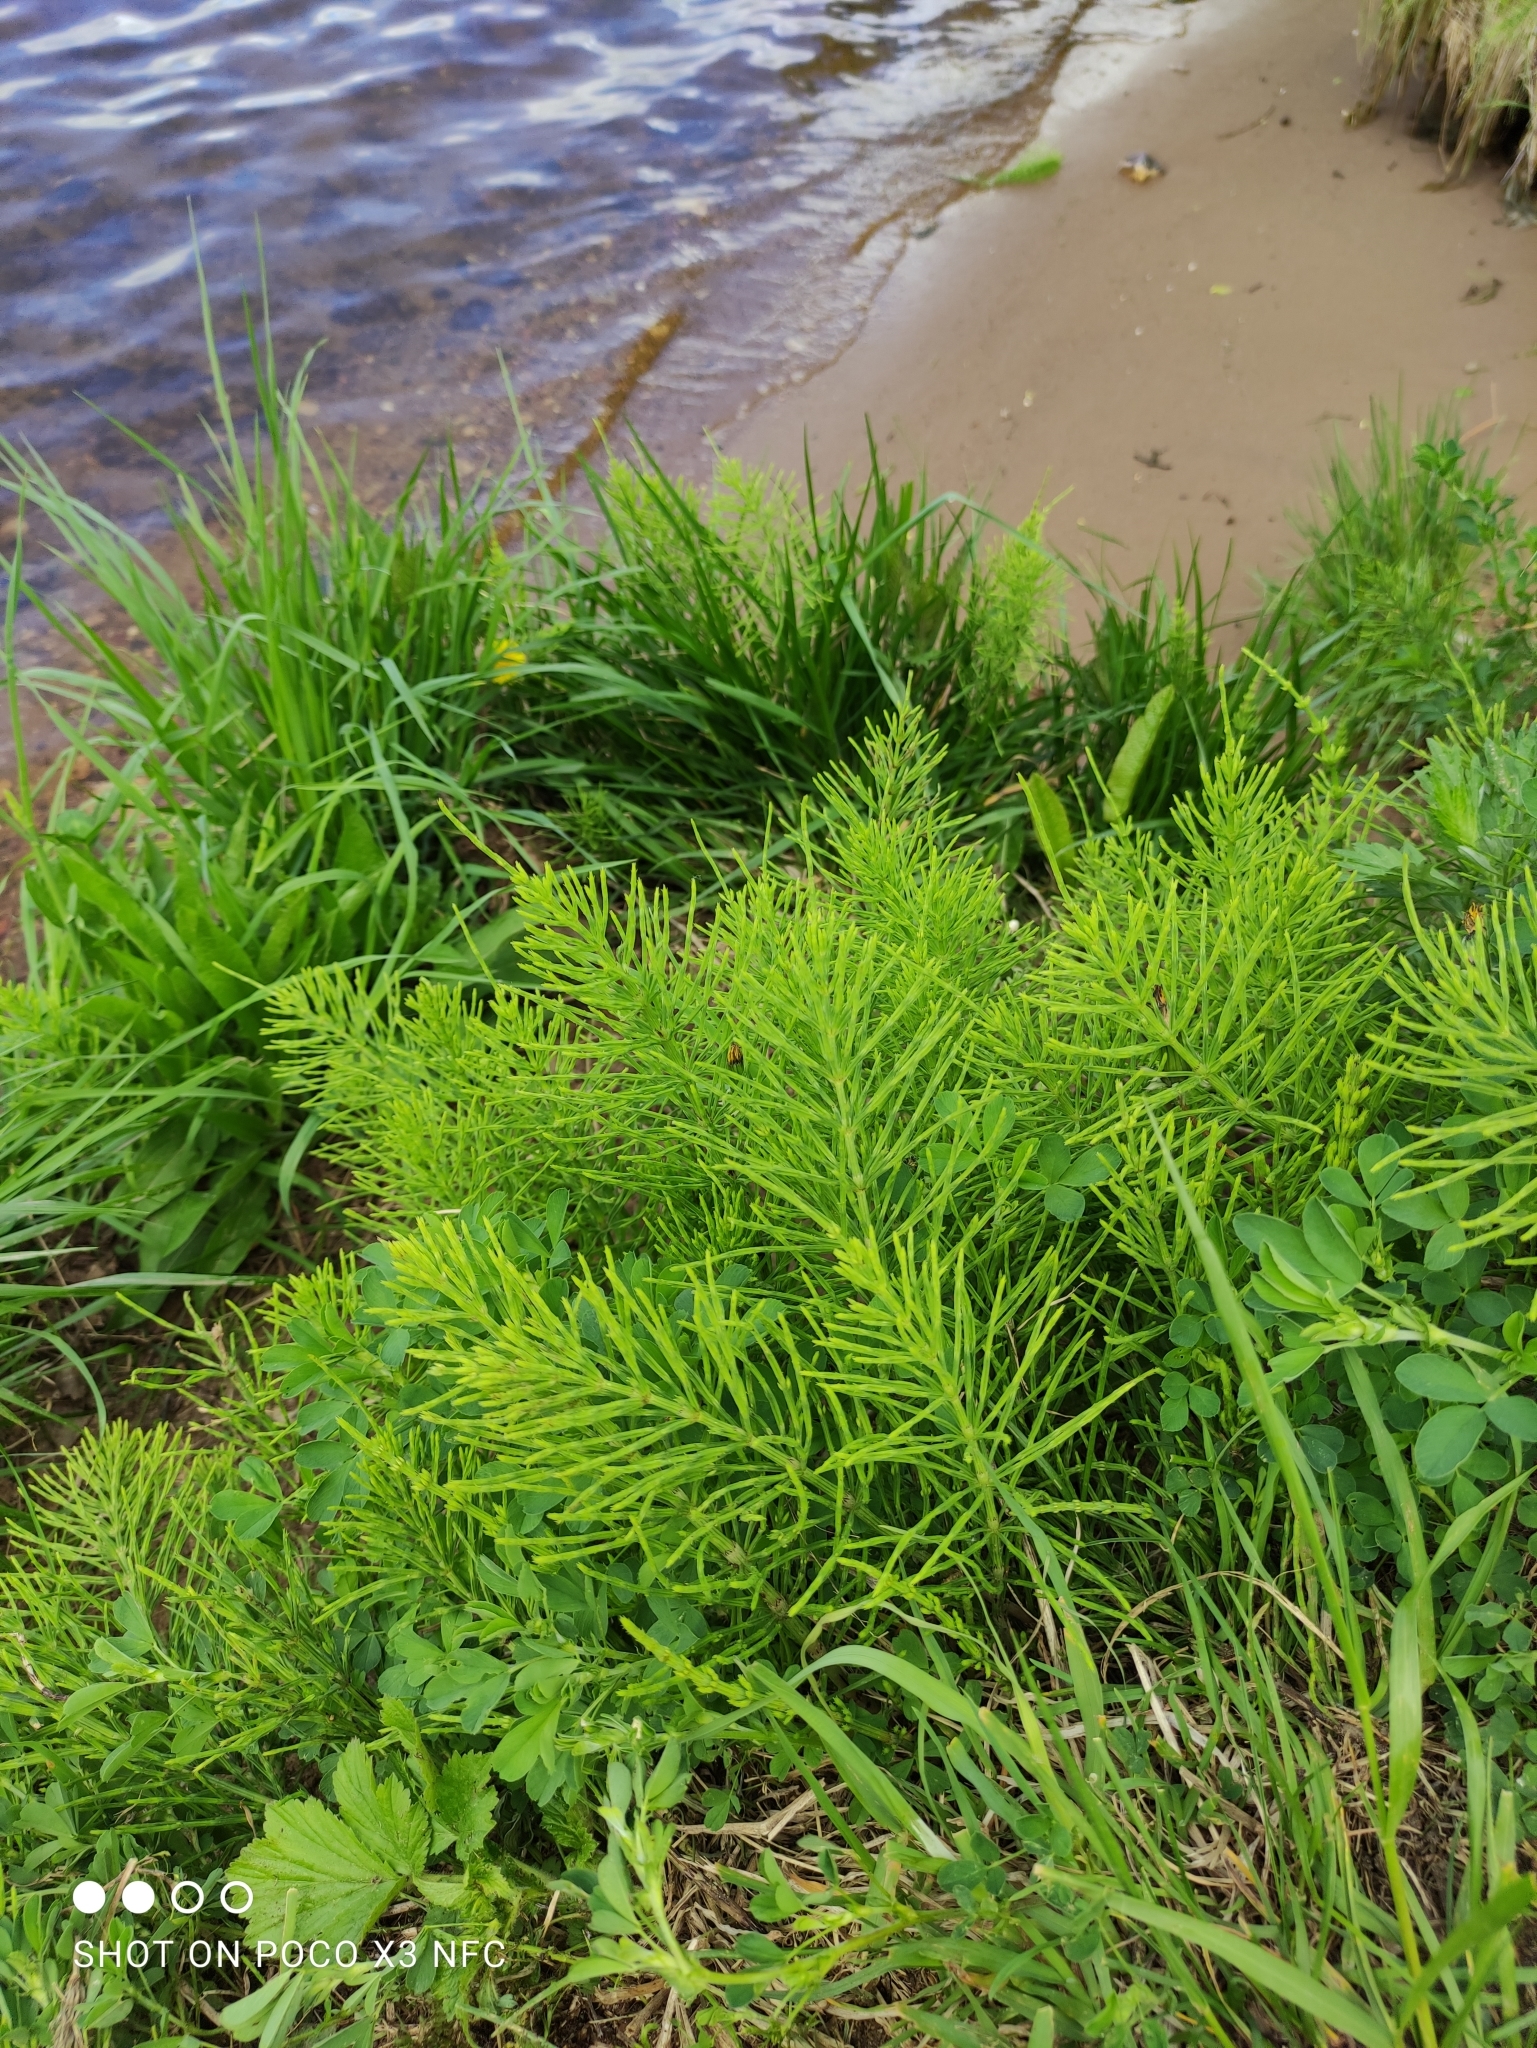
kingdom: Plantae
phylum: Tracheophyta
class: Polypodiopsida
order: Equisetales
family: Equisetaceae
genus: Equisetum
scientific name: Equisetum arvense
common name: Field horsetail
